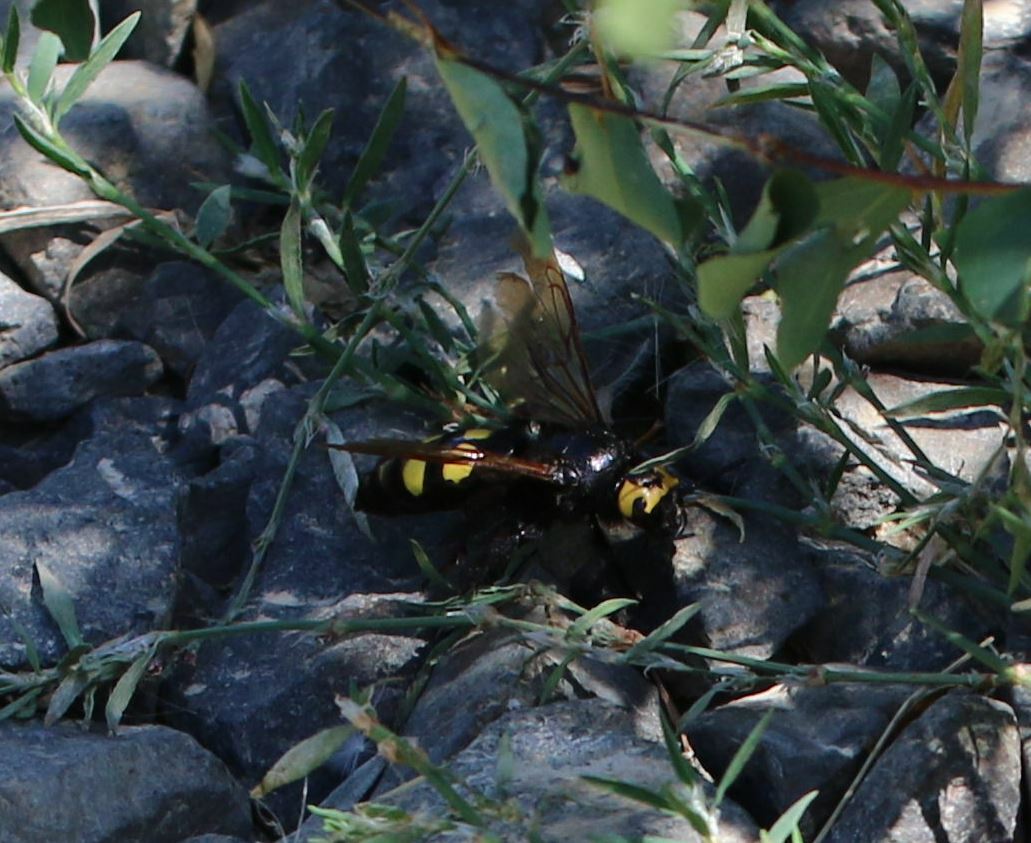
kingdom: Animalia
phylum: Arthropoda
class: Insecta
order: Hymenoptera
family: Scoliidae
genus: Megascolia
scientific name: Megascolia maculata
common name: Mammoth wasp
